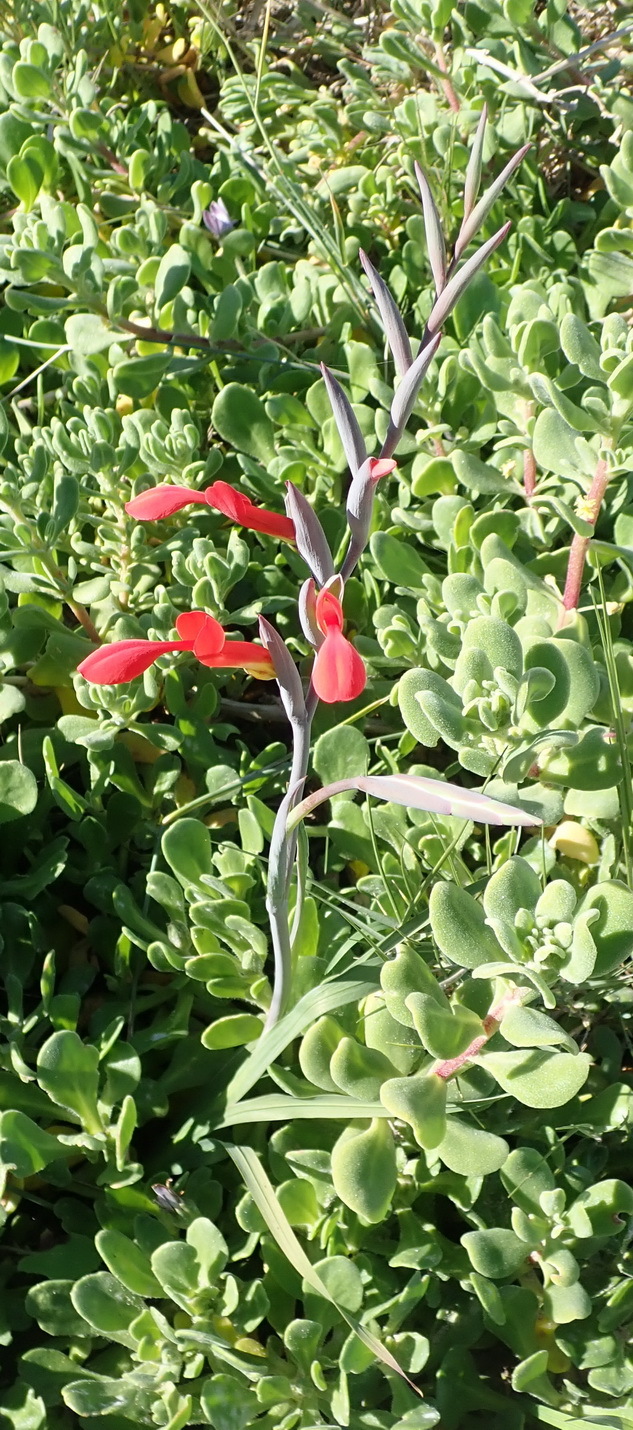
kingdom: Plantae
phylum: Tracheophyta
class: Liliopsida
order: Asparagales
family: Iridaceae
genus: Gladiolus
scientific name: Gladiolus cunonius
